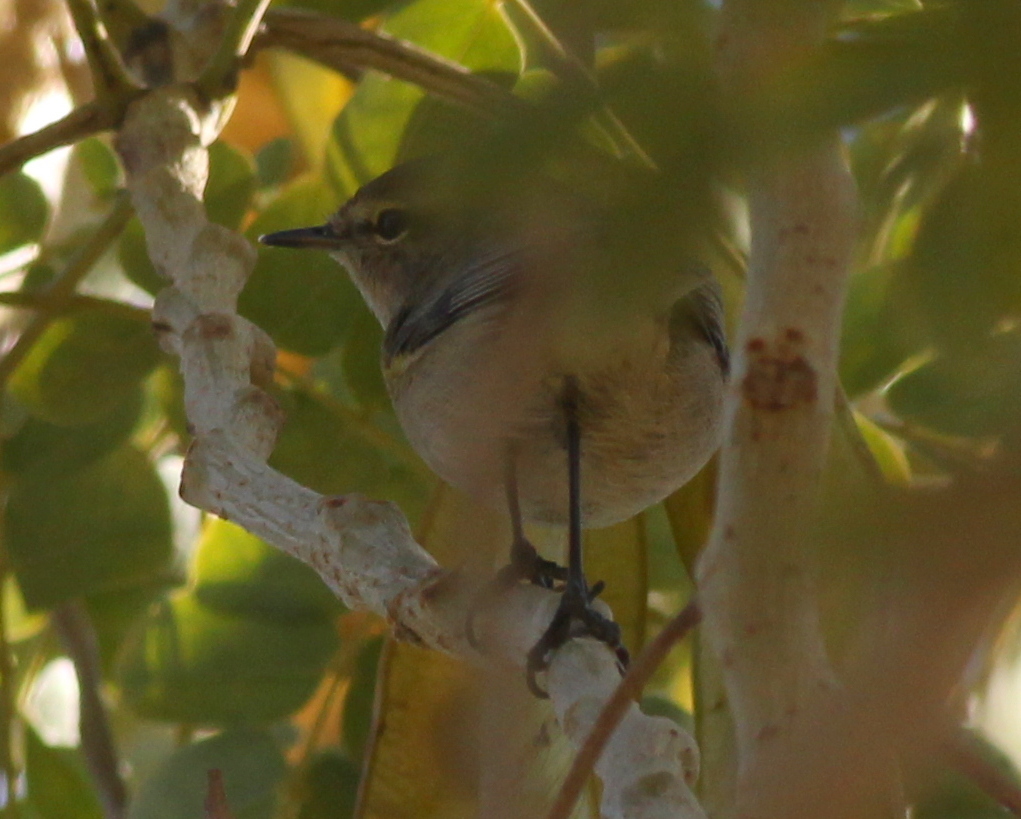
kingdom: Animalia
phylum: Chordata
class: Aves
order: Passeriformes
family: Phylloscopidae
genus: Phylloscopus
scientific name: Phylloscopus collybita
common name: Common chiffchaff
